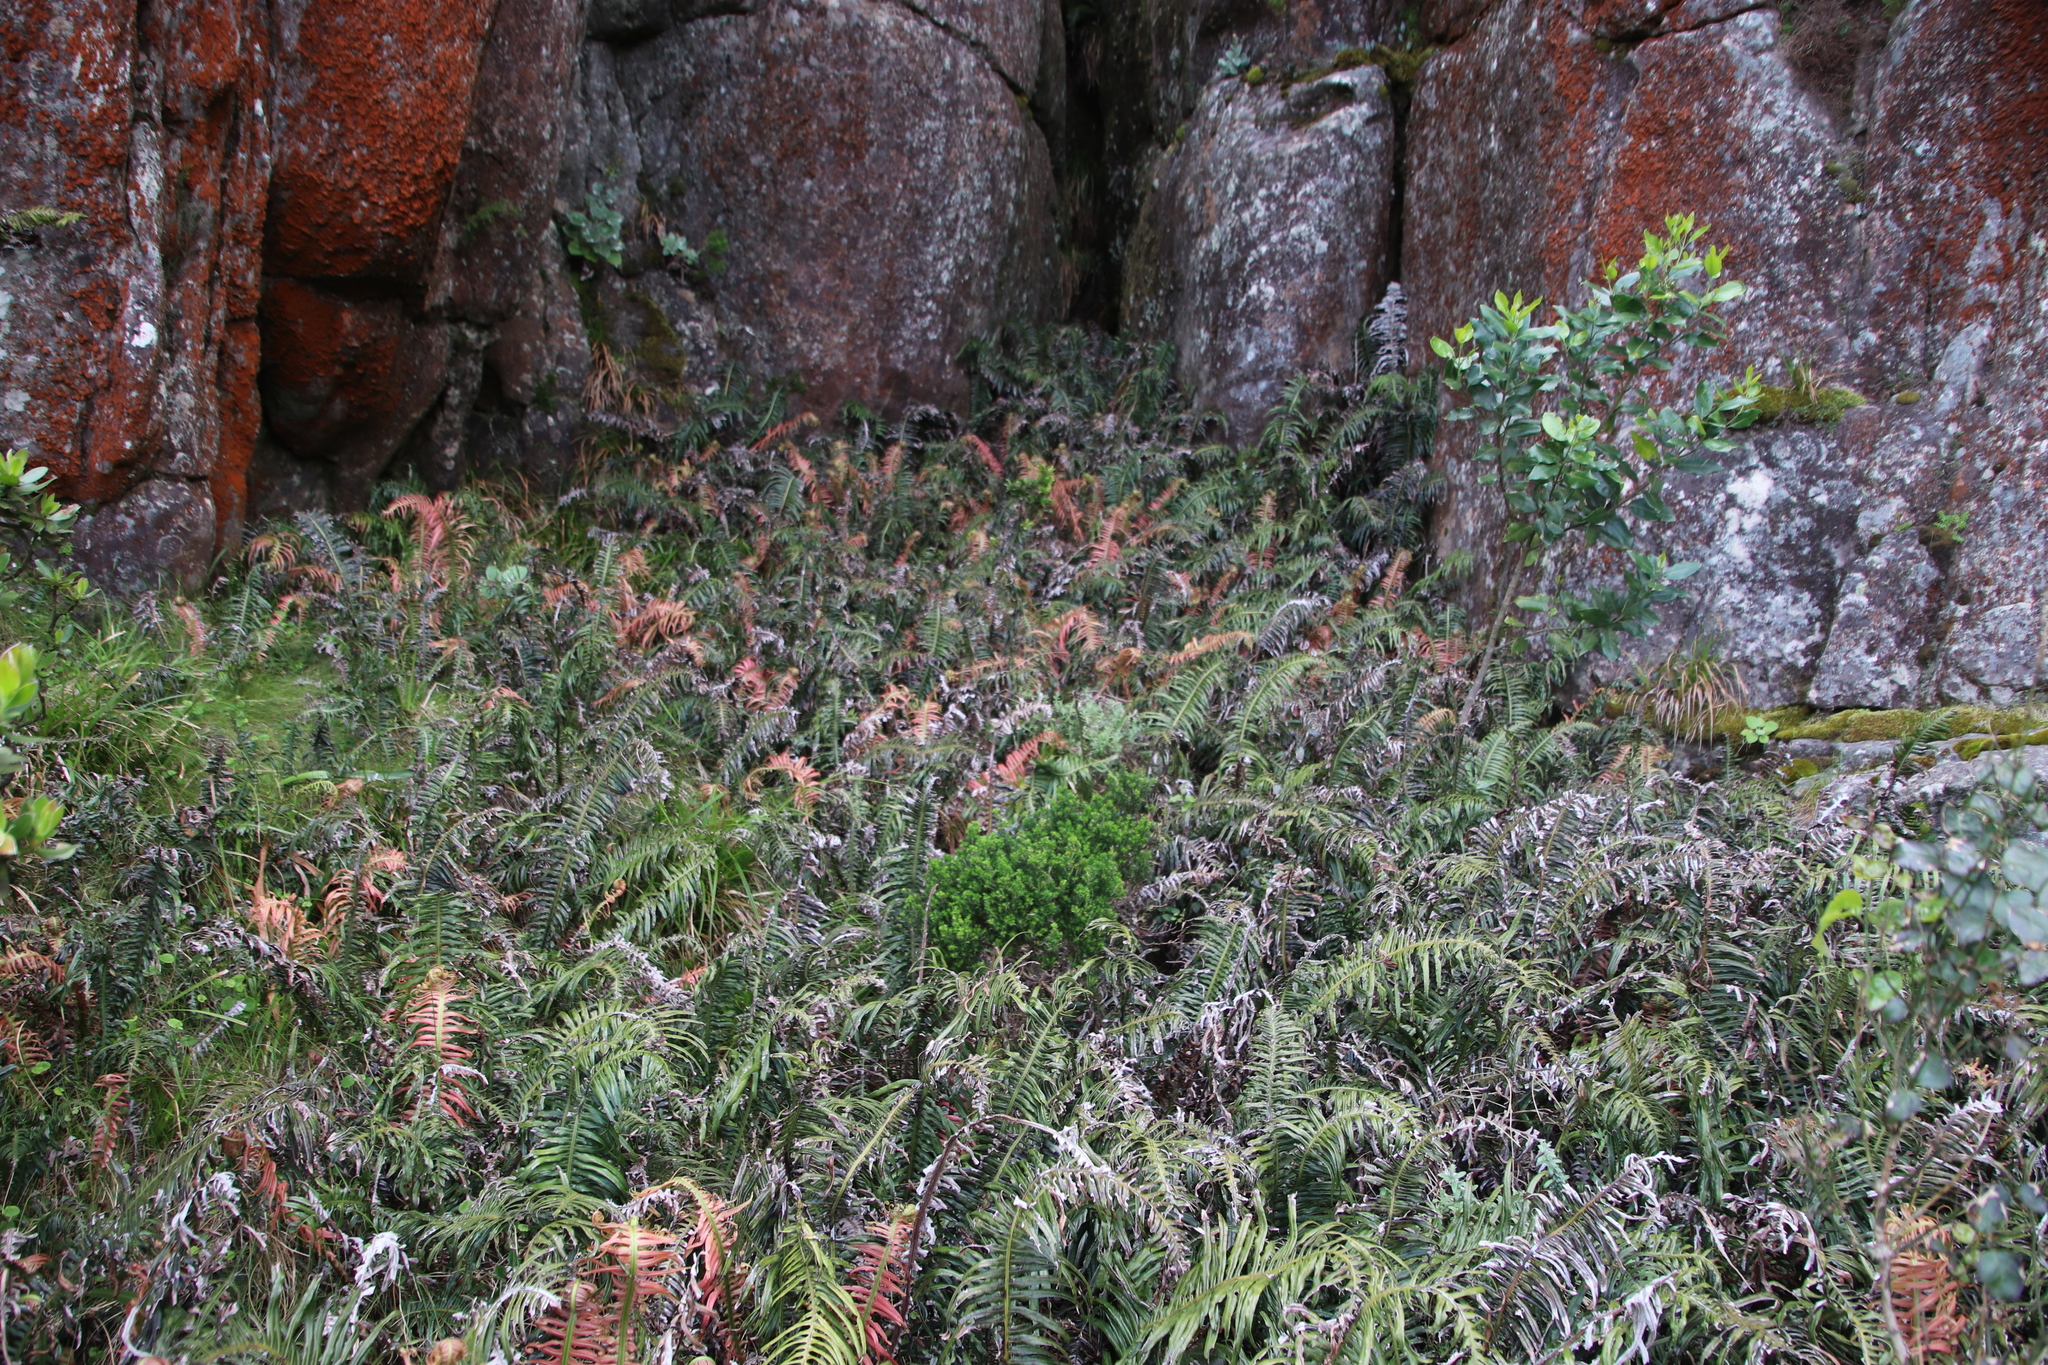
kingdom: Plantae
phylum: Tracheophyta
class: Polypodiopsida
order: Polypodiales
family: Blechnaceae
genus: Lomaridium
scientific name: Lomaridium attenuatum
